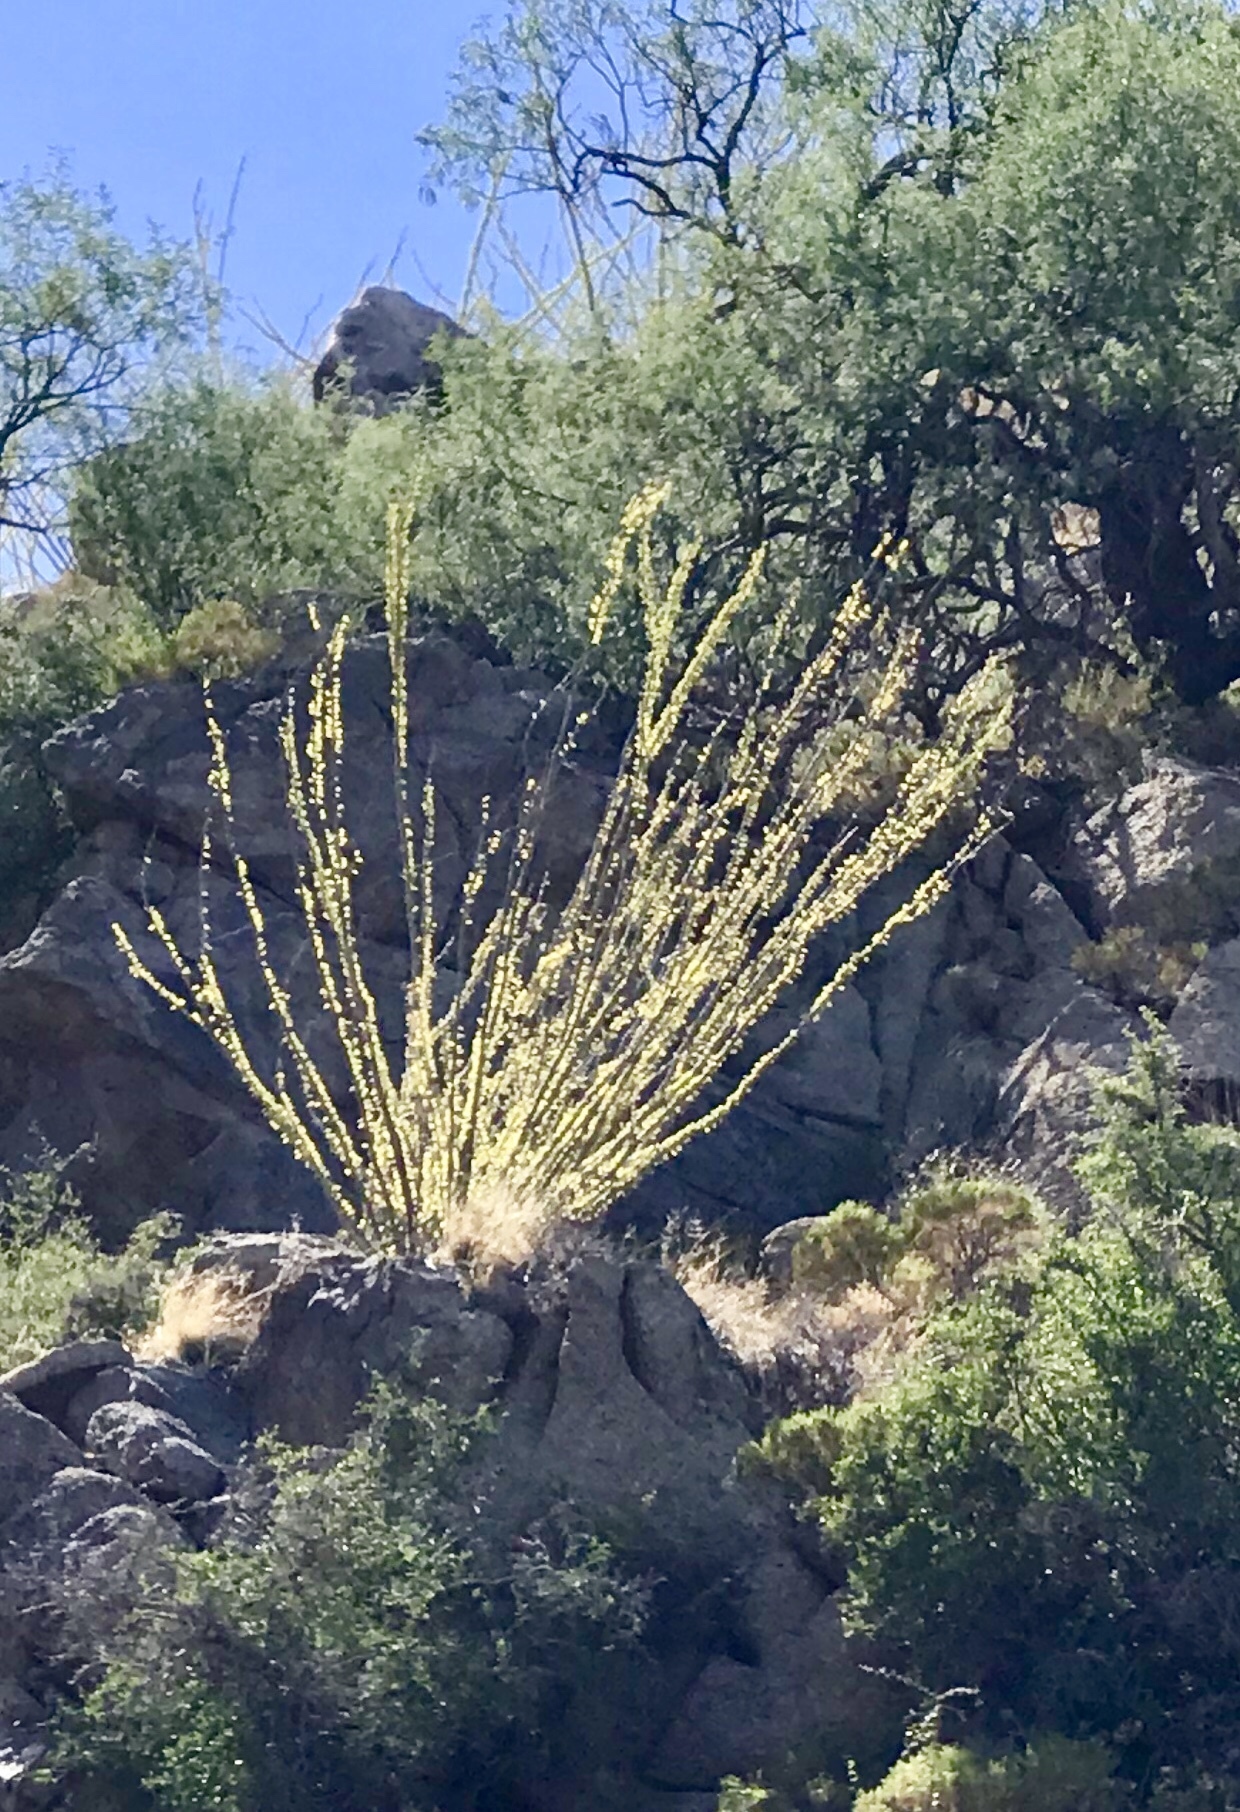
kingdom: Plantae
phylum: Tracheophyta
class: Magnoliopsida
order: Ericales
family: Fouquieriaceae
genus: Fouquieria
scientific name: Fouquieria splendens
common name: Vine-cactus
